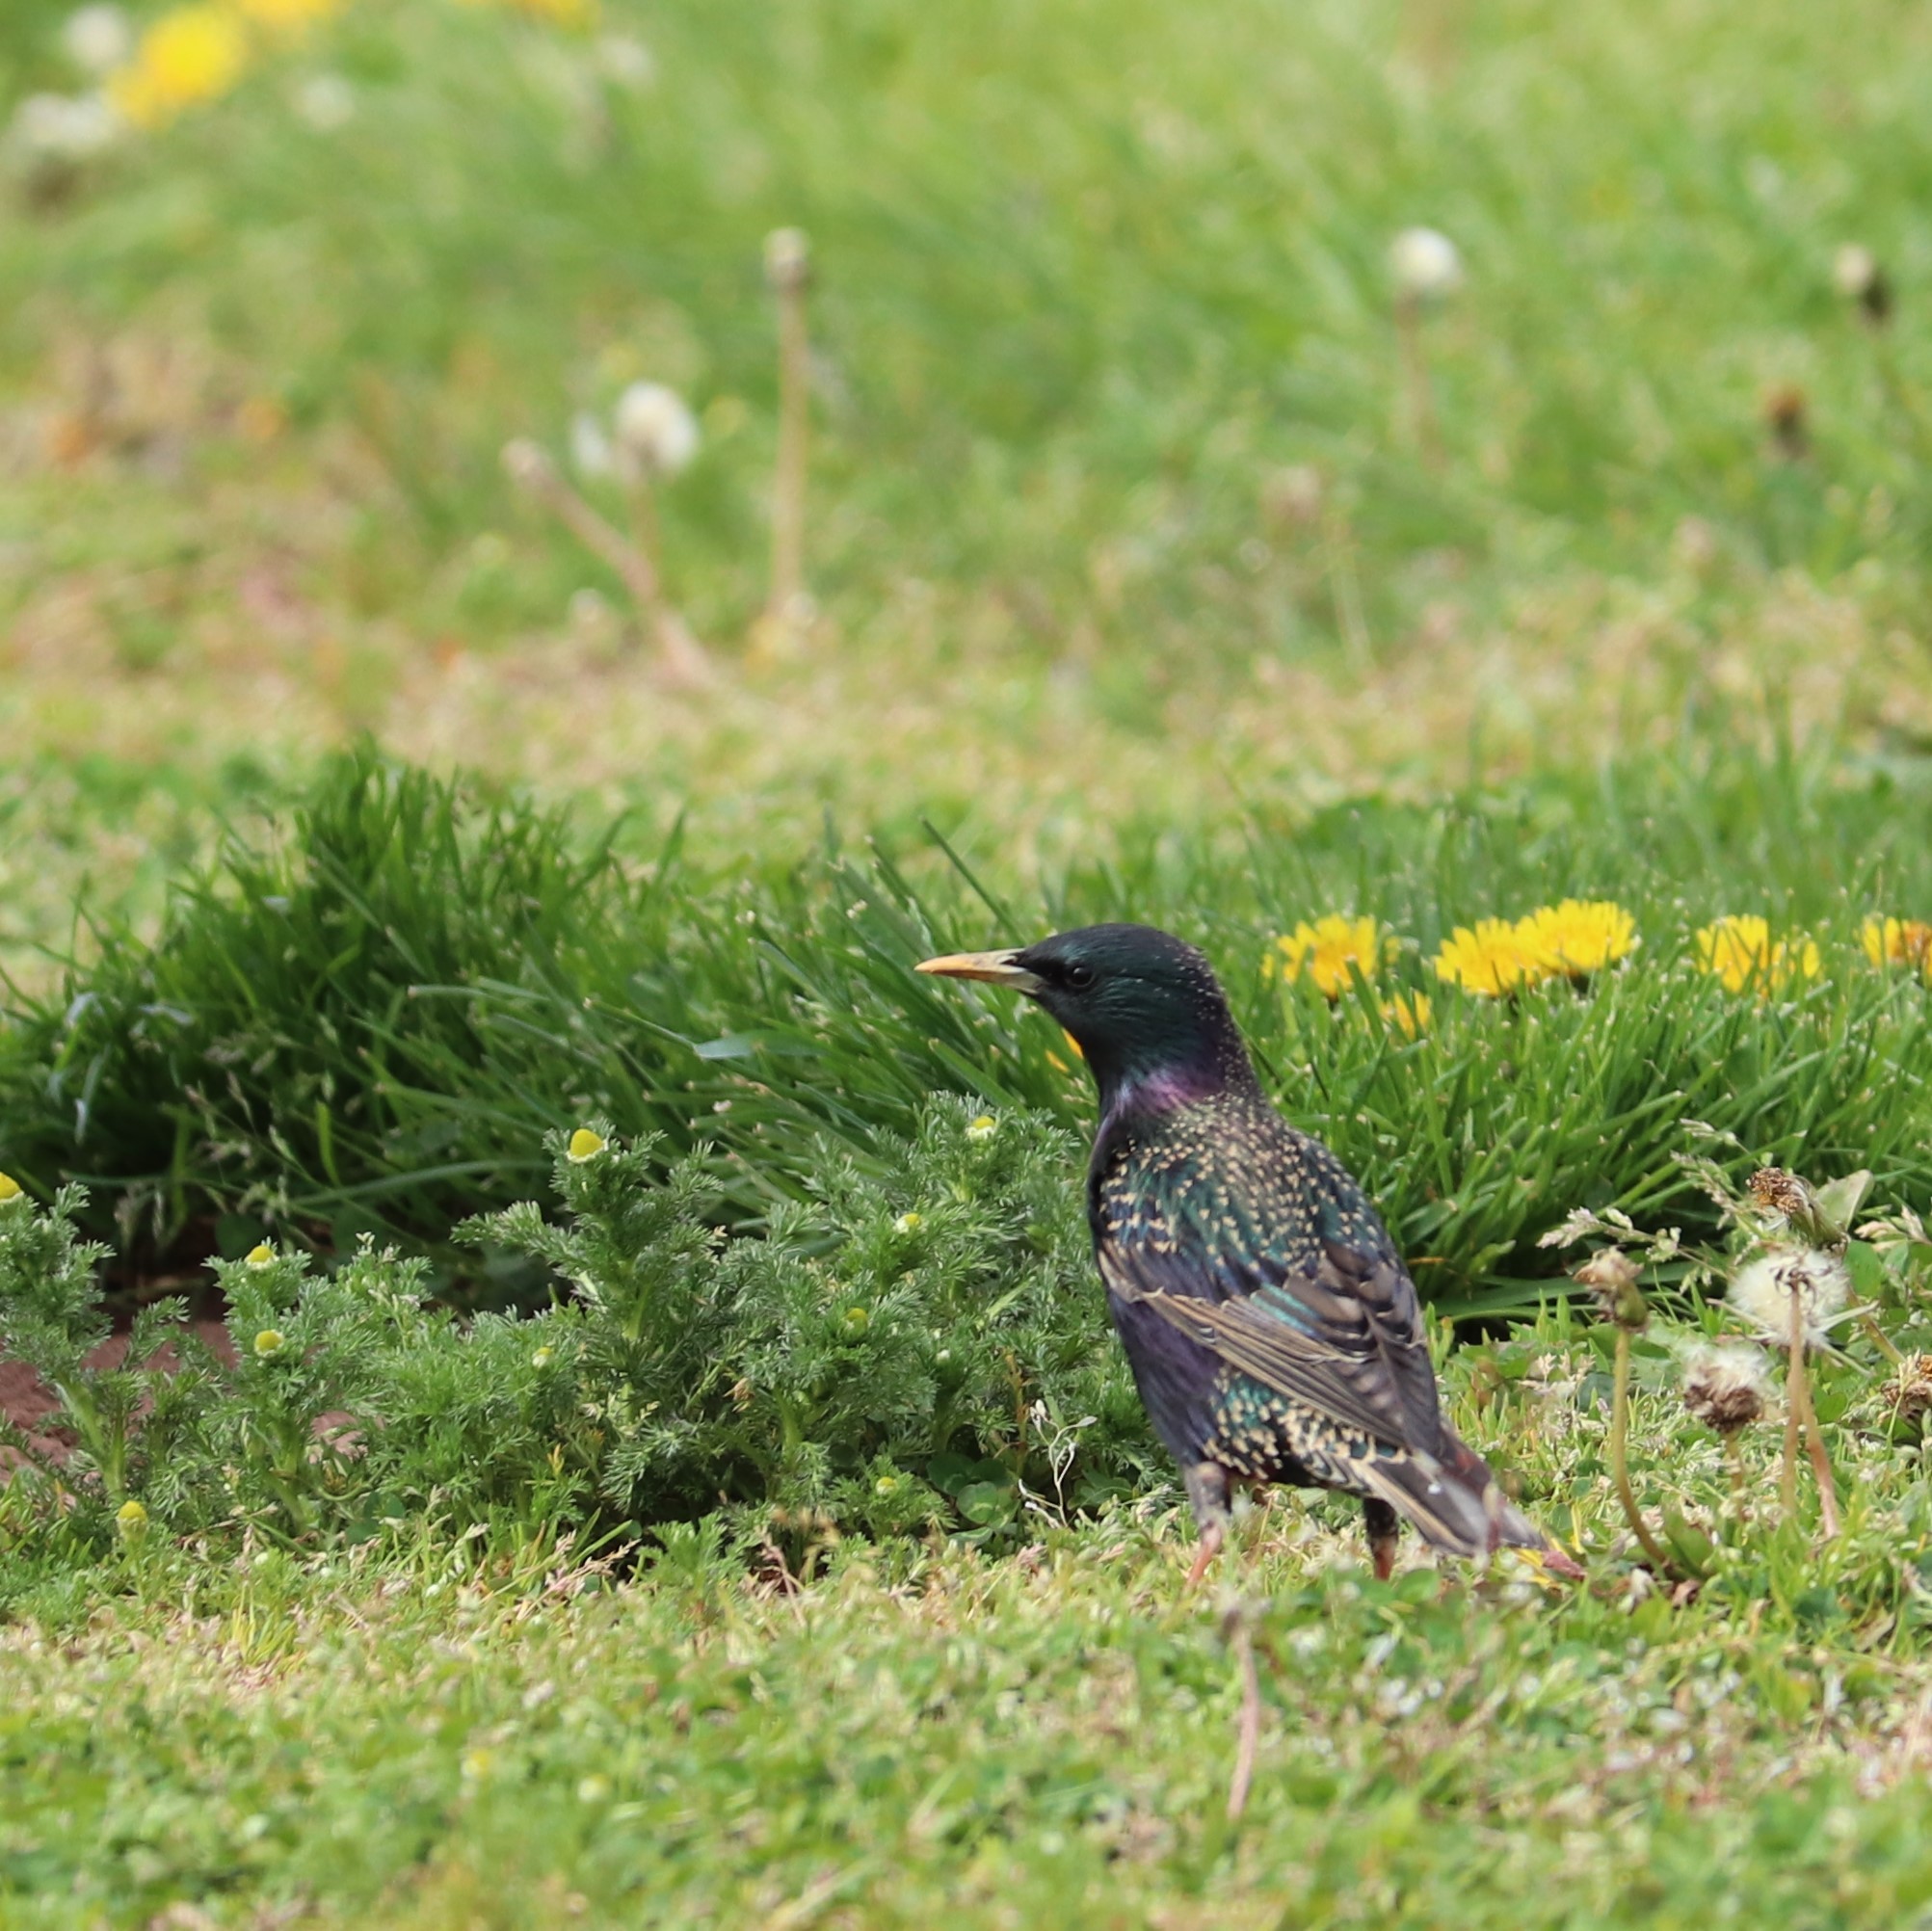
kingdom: Animalia
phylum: Chordata
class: Aves
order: Passeriformes
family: Sturnidae
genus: Sturnus
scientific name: Sturnus vulgaris
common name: Common starling
